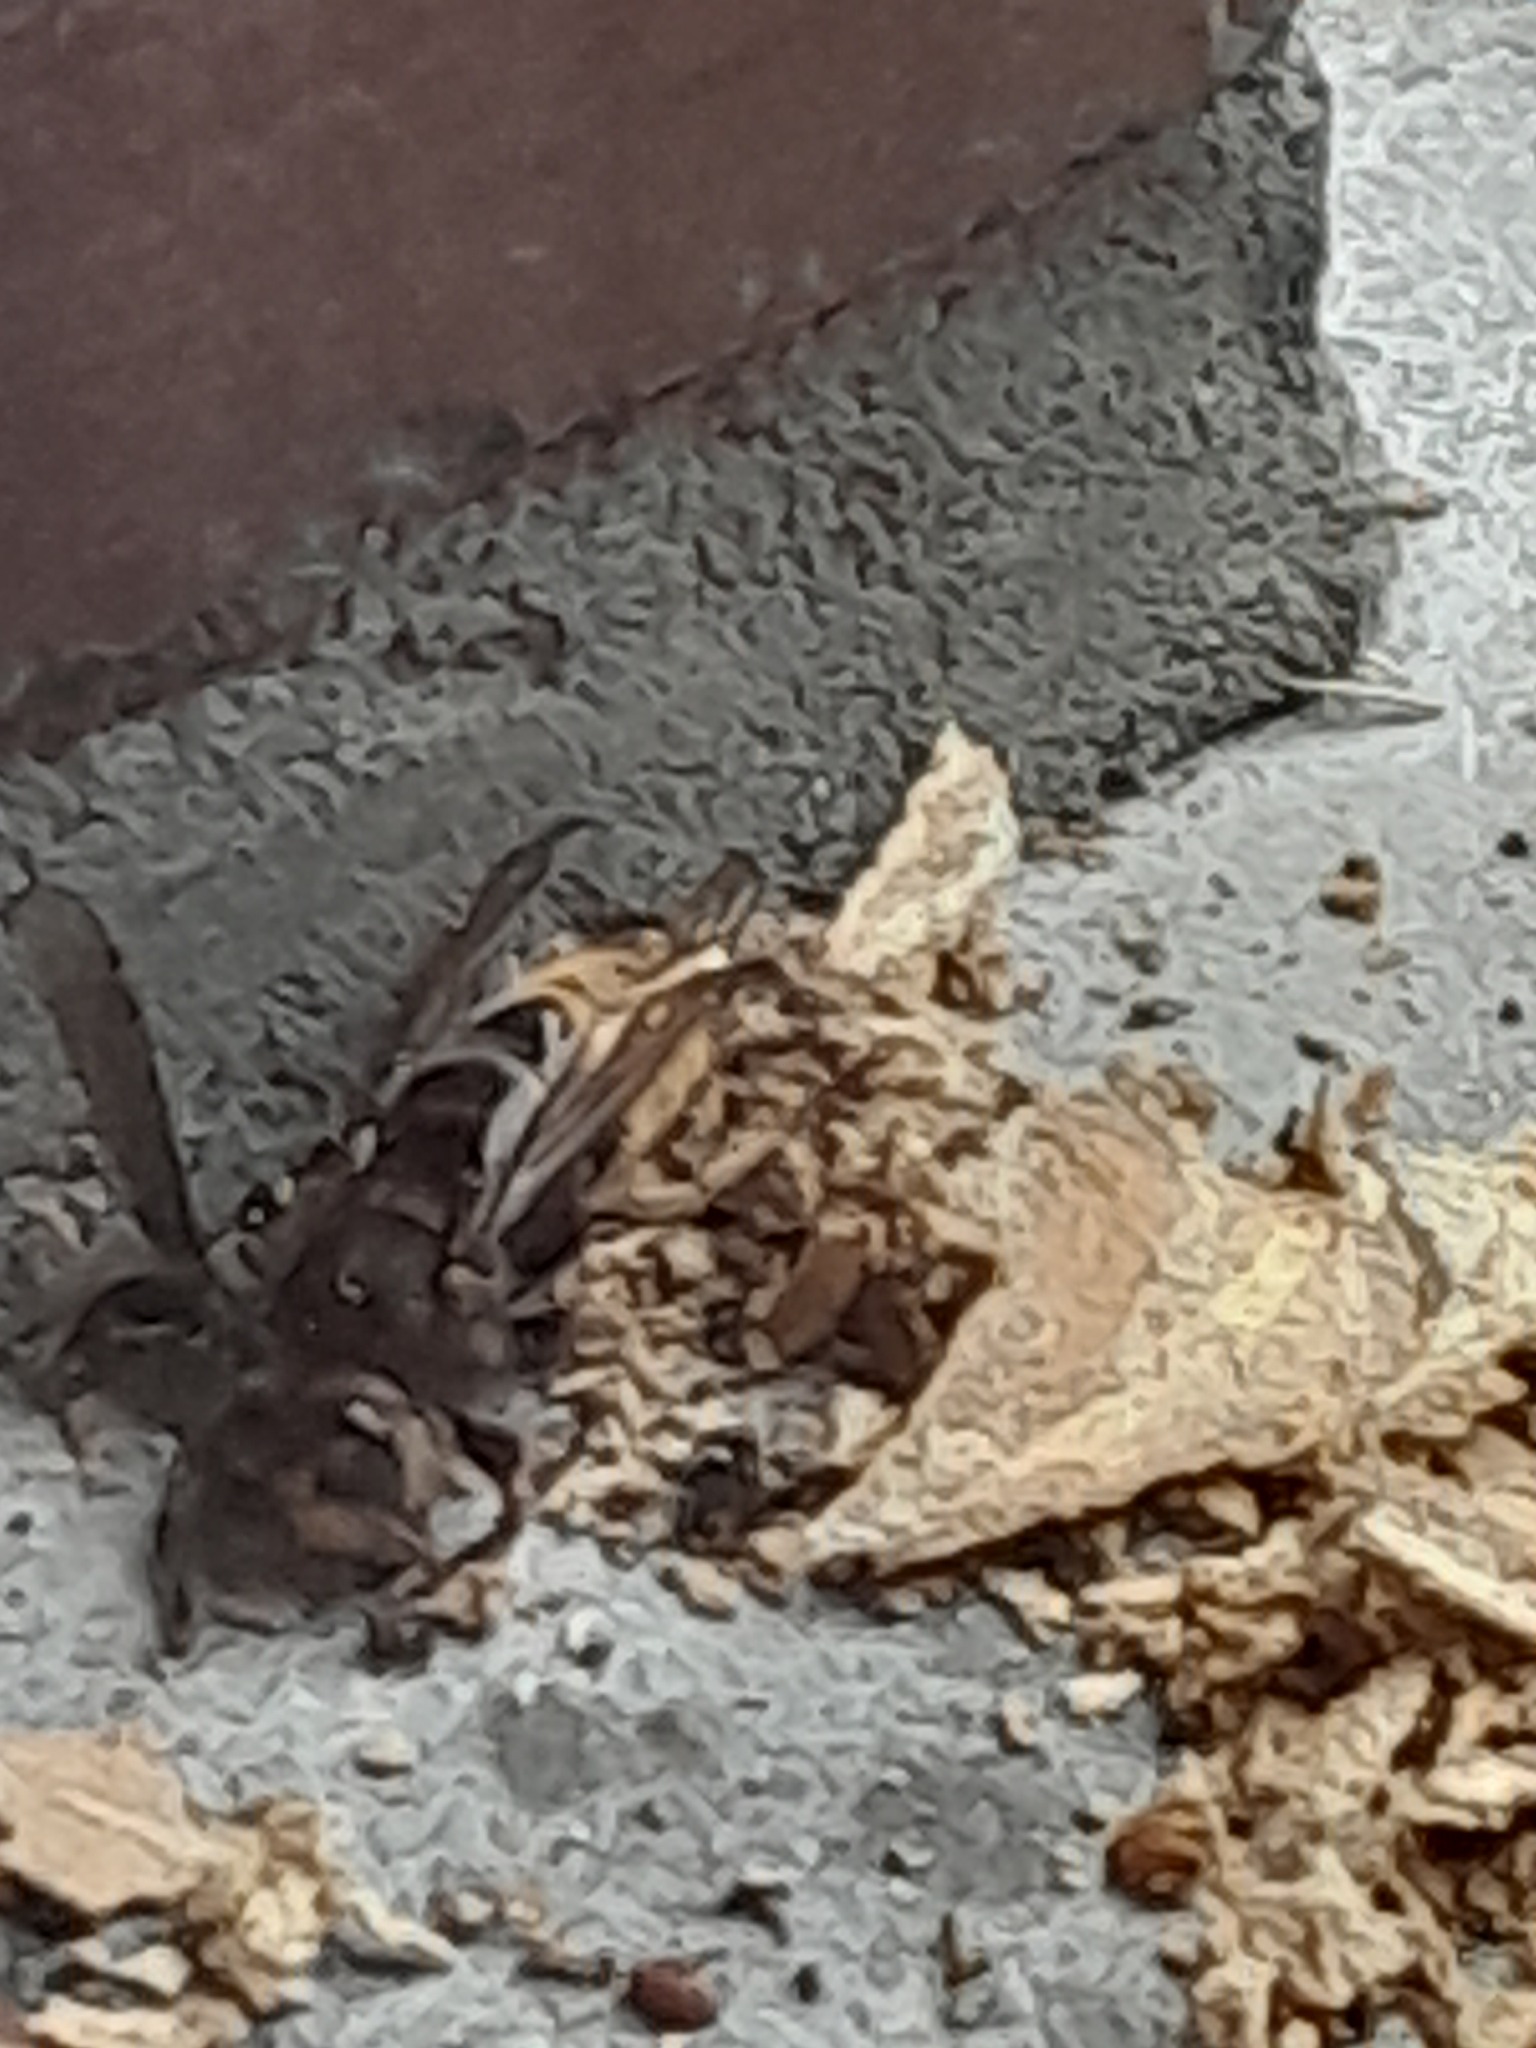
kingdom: Animalia
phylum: Arthropoda
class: Insecta
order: Hymenoptera
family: Vespidae
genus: Vespa
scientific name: Vespa crabro
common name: Hornet
